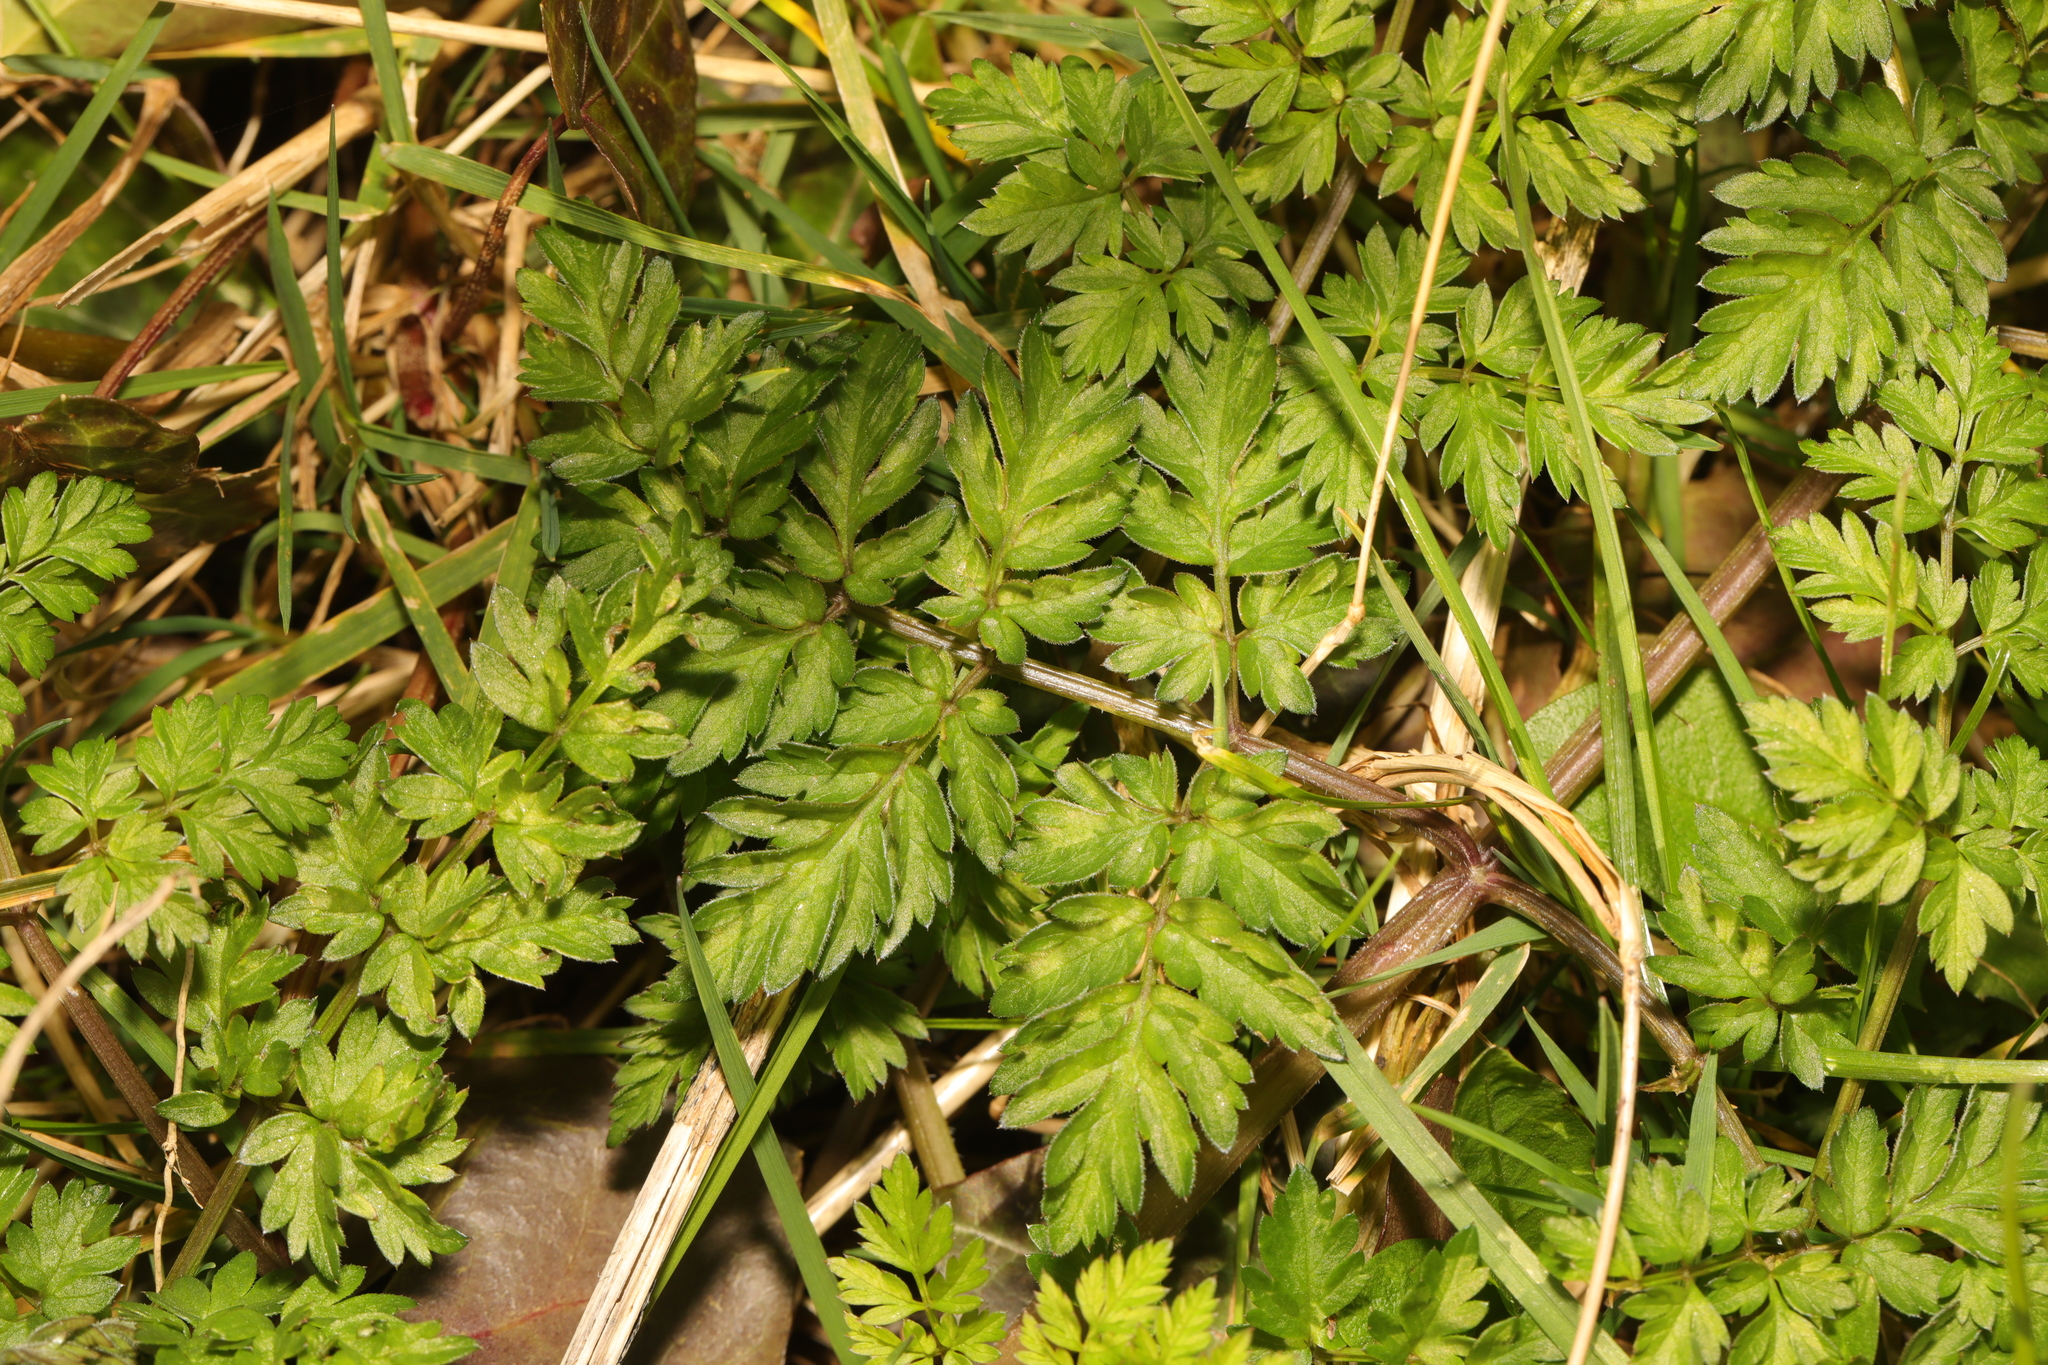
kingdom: Plantae
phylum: Tracheophyta
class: Magnoliopsida
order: Apiales
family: Apiaceae
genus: Anthriscus
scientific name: Anthriscus sylvestris
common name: Cow parsley
